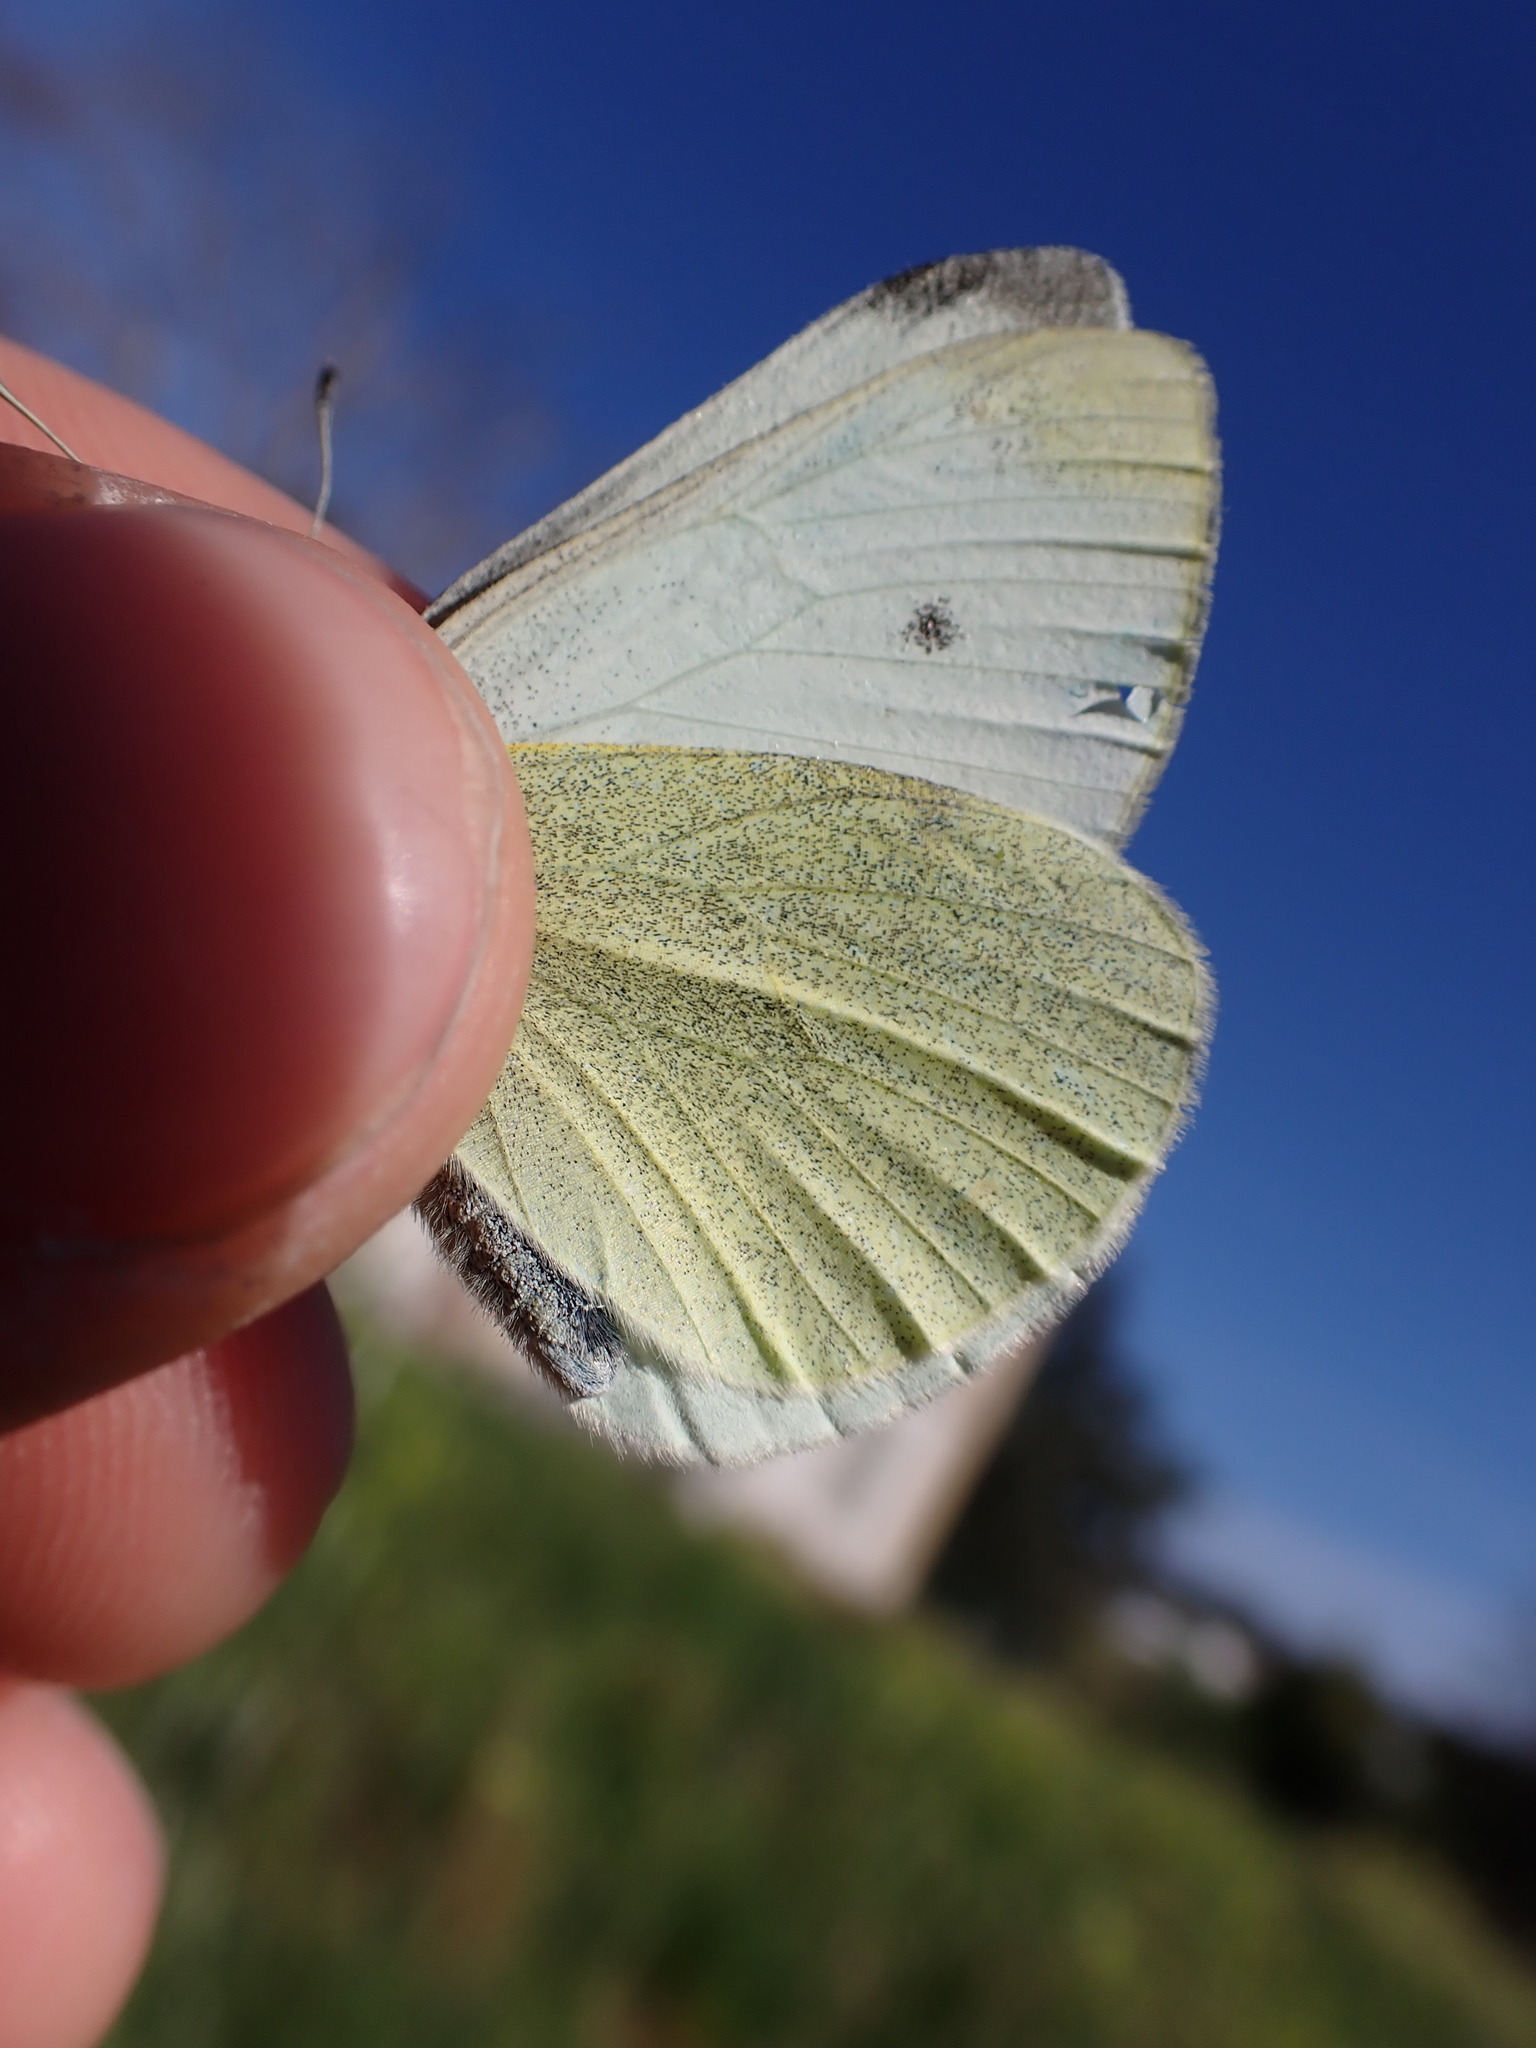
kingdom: Animalia
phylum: Arthropoda
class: Insecta
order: Lepidoptera
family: Pieridae
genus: Pieris
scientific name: Pieris rapae
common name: Small white
